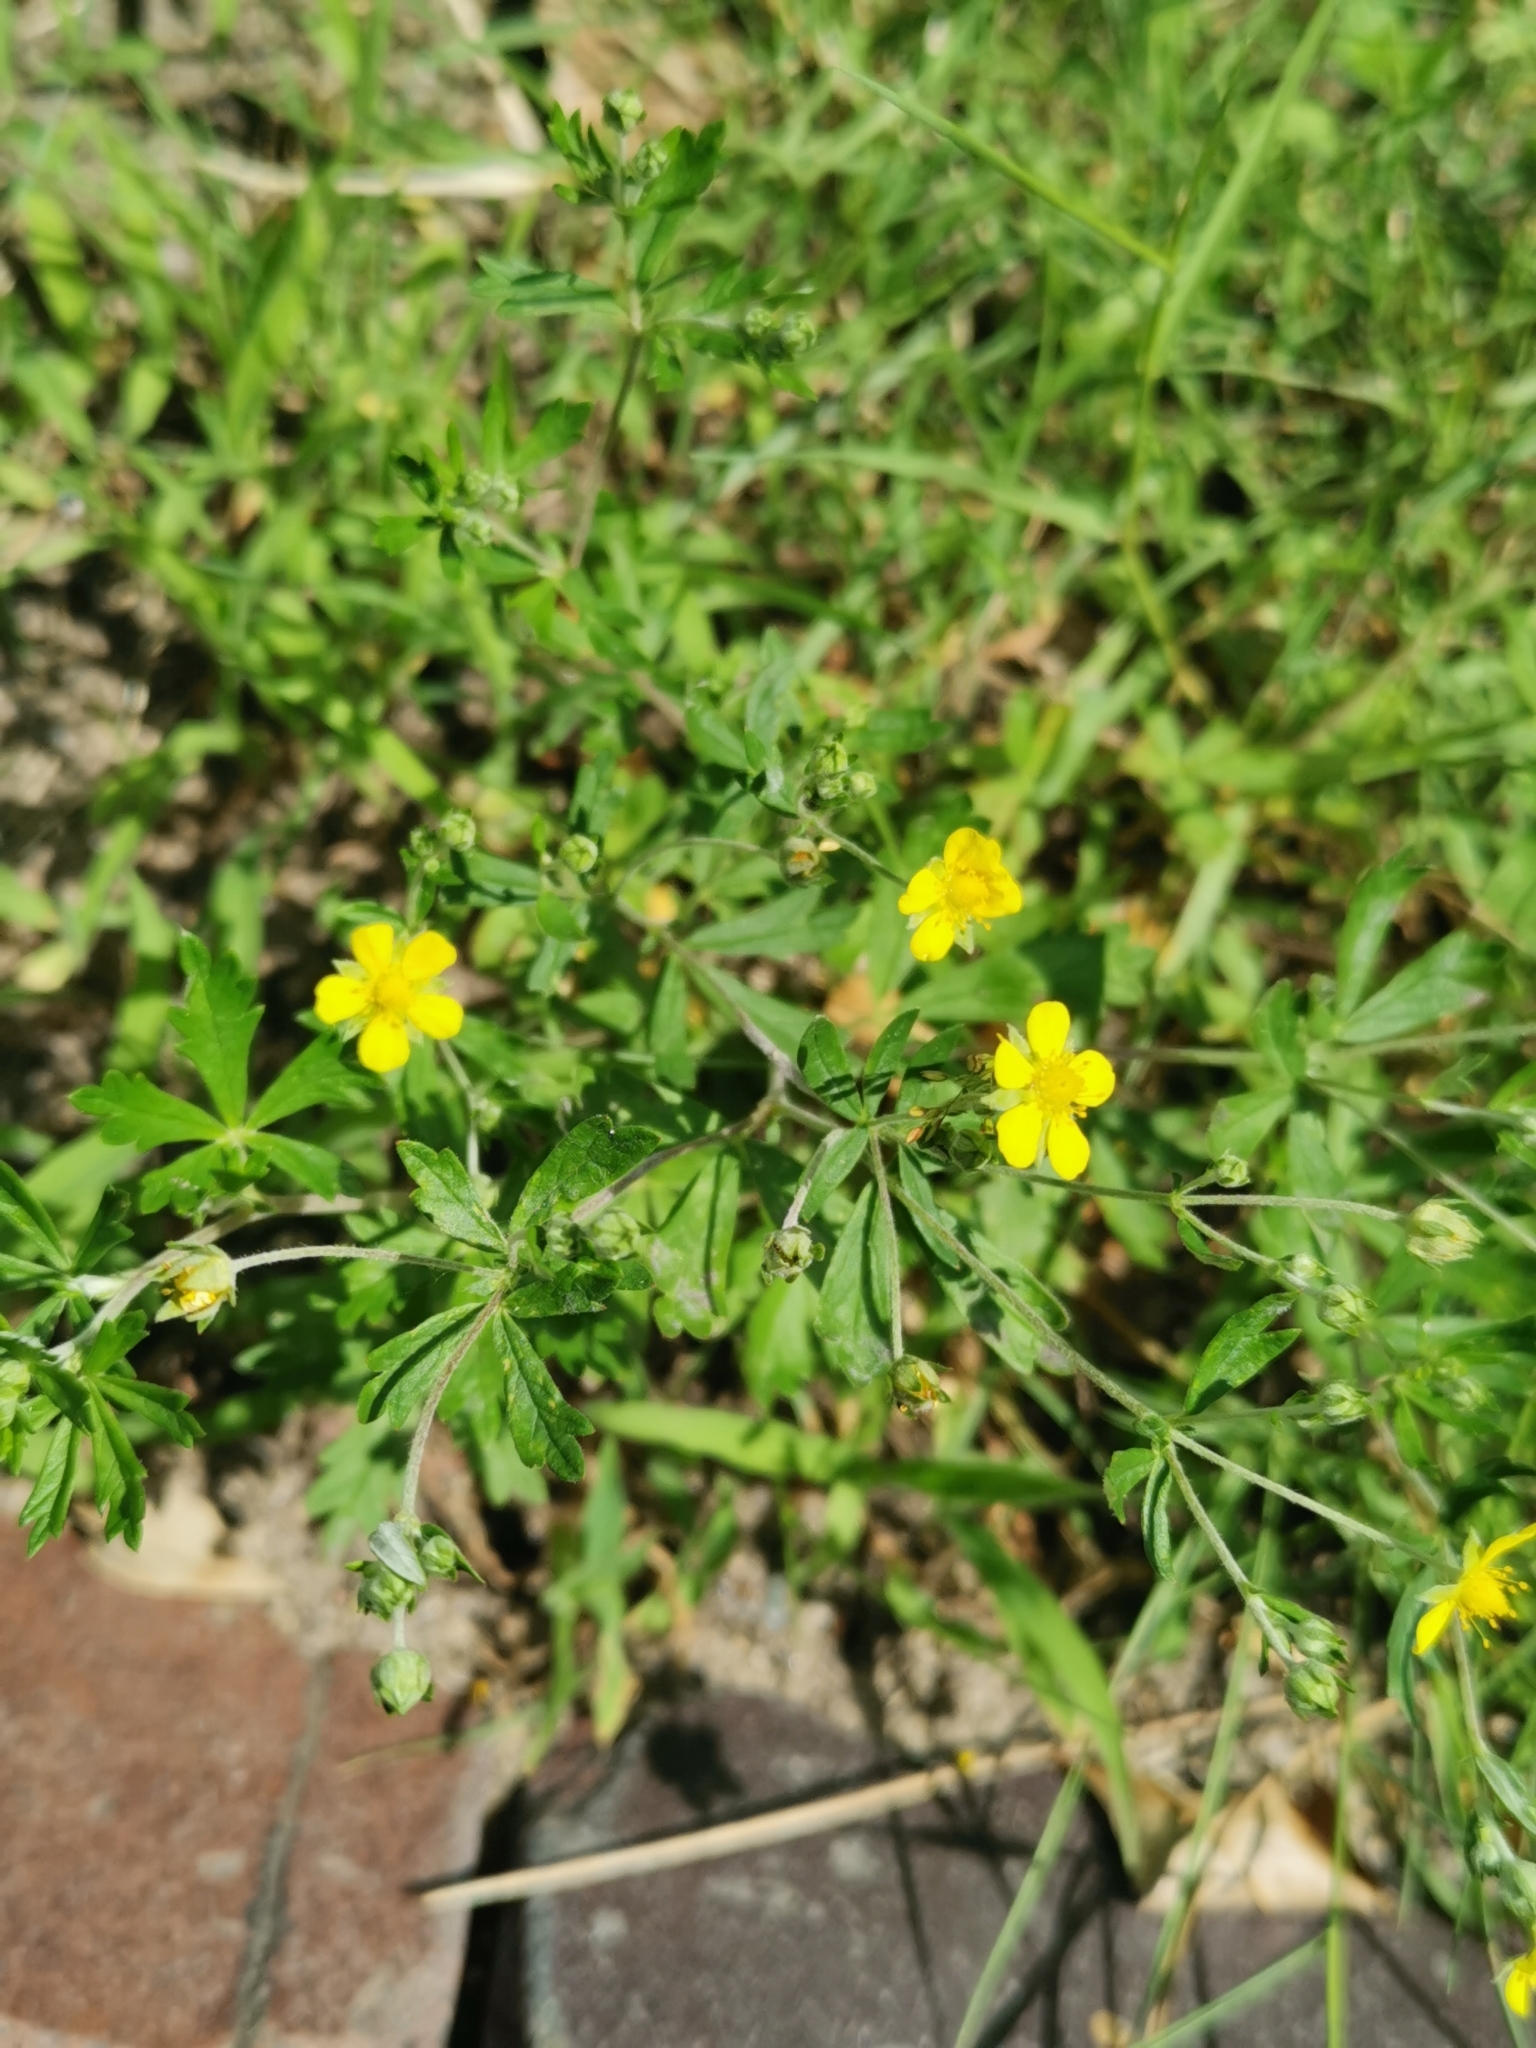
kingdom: Plantae
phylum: Tracheophyta
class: Magnoliopsida
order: Rosales
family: Rosaceae
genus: Potentilla
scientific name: Potentilla argentea
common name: Hoary cinquefoil
